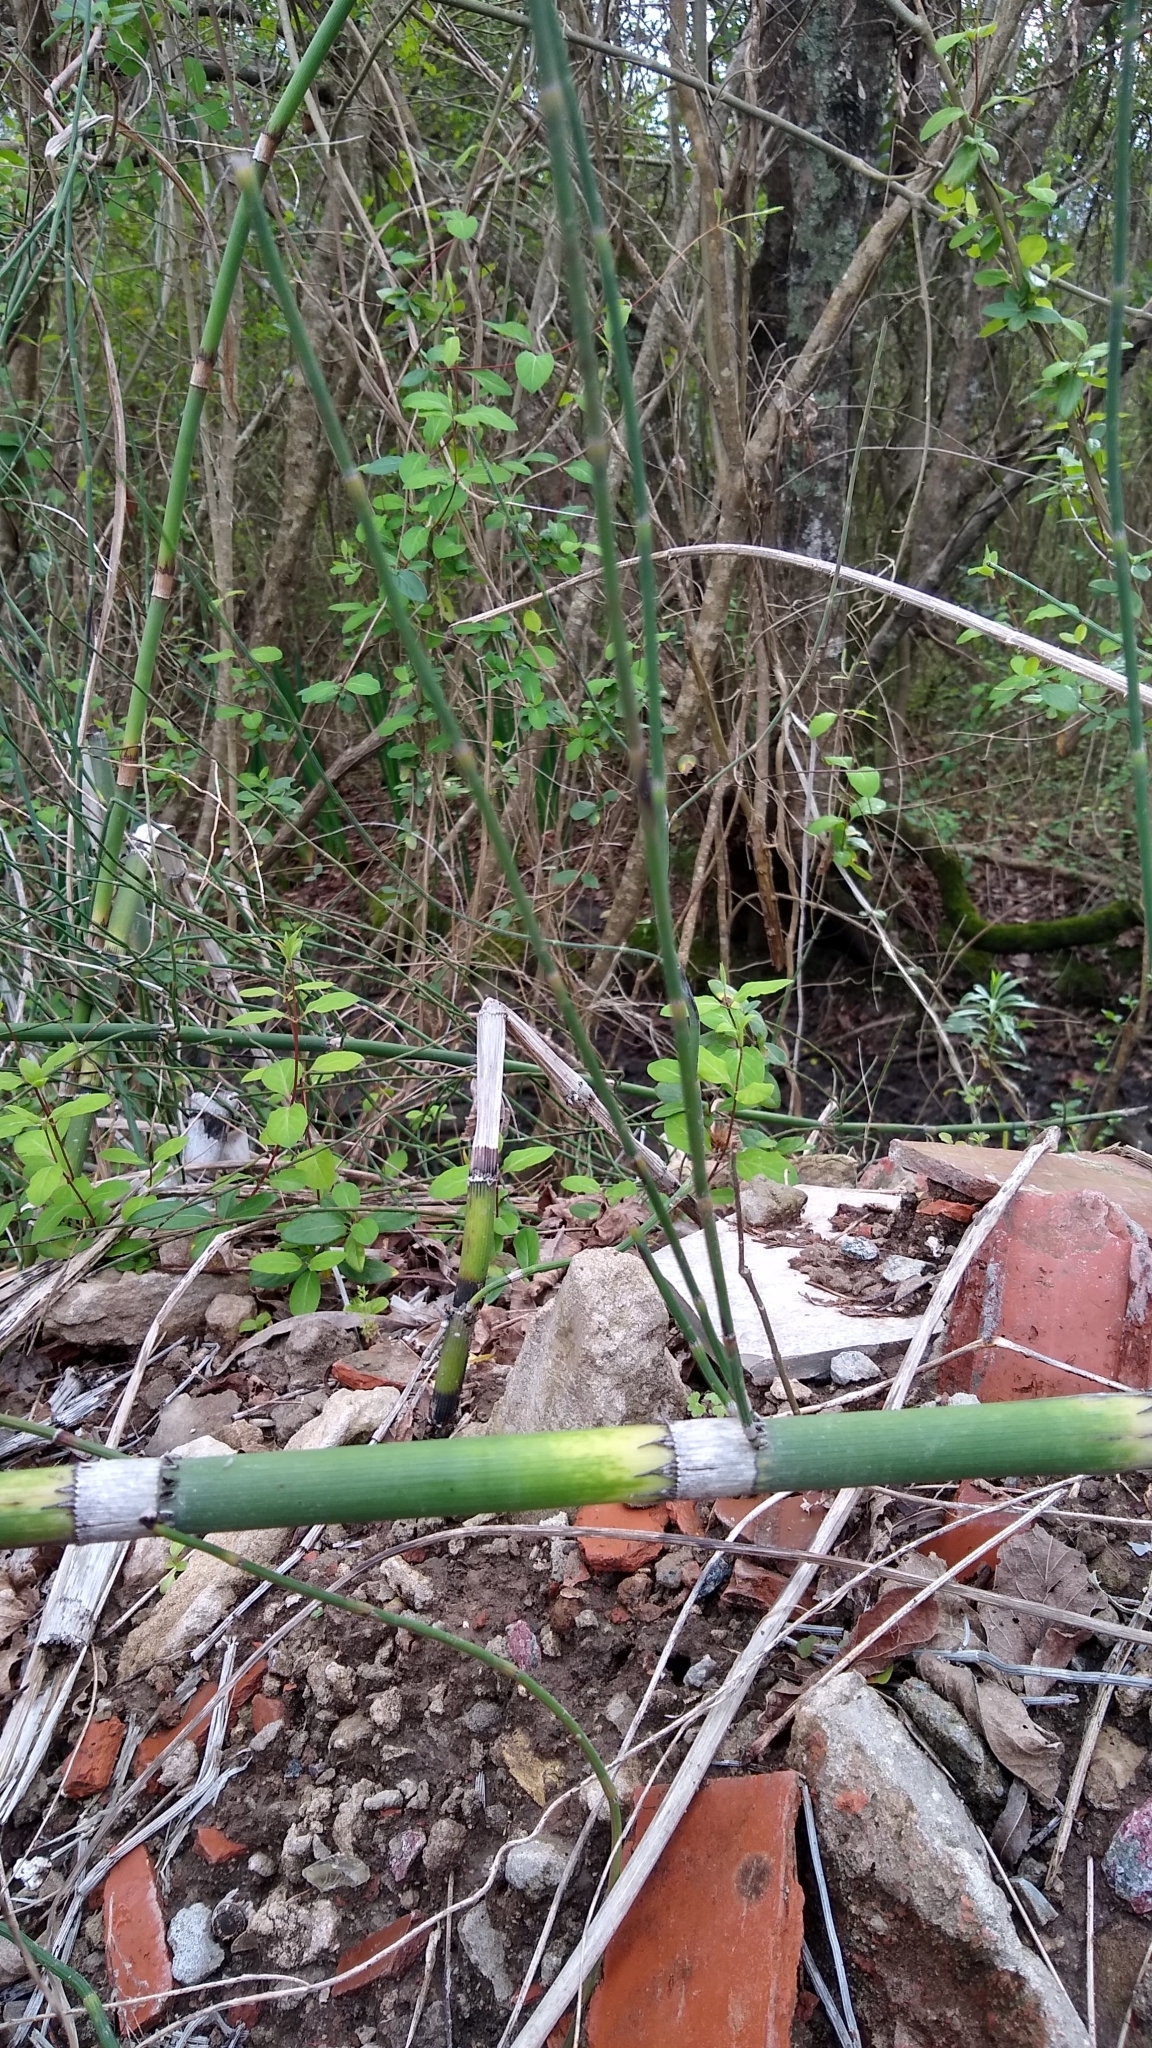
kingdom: Plantae
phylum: Tracheophyta
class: Polypodiopsida
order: Equisetales
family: Equisetaceae
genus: Equisetum
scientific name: Equisetum giganteum
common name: Giant horsetail
